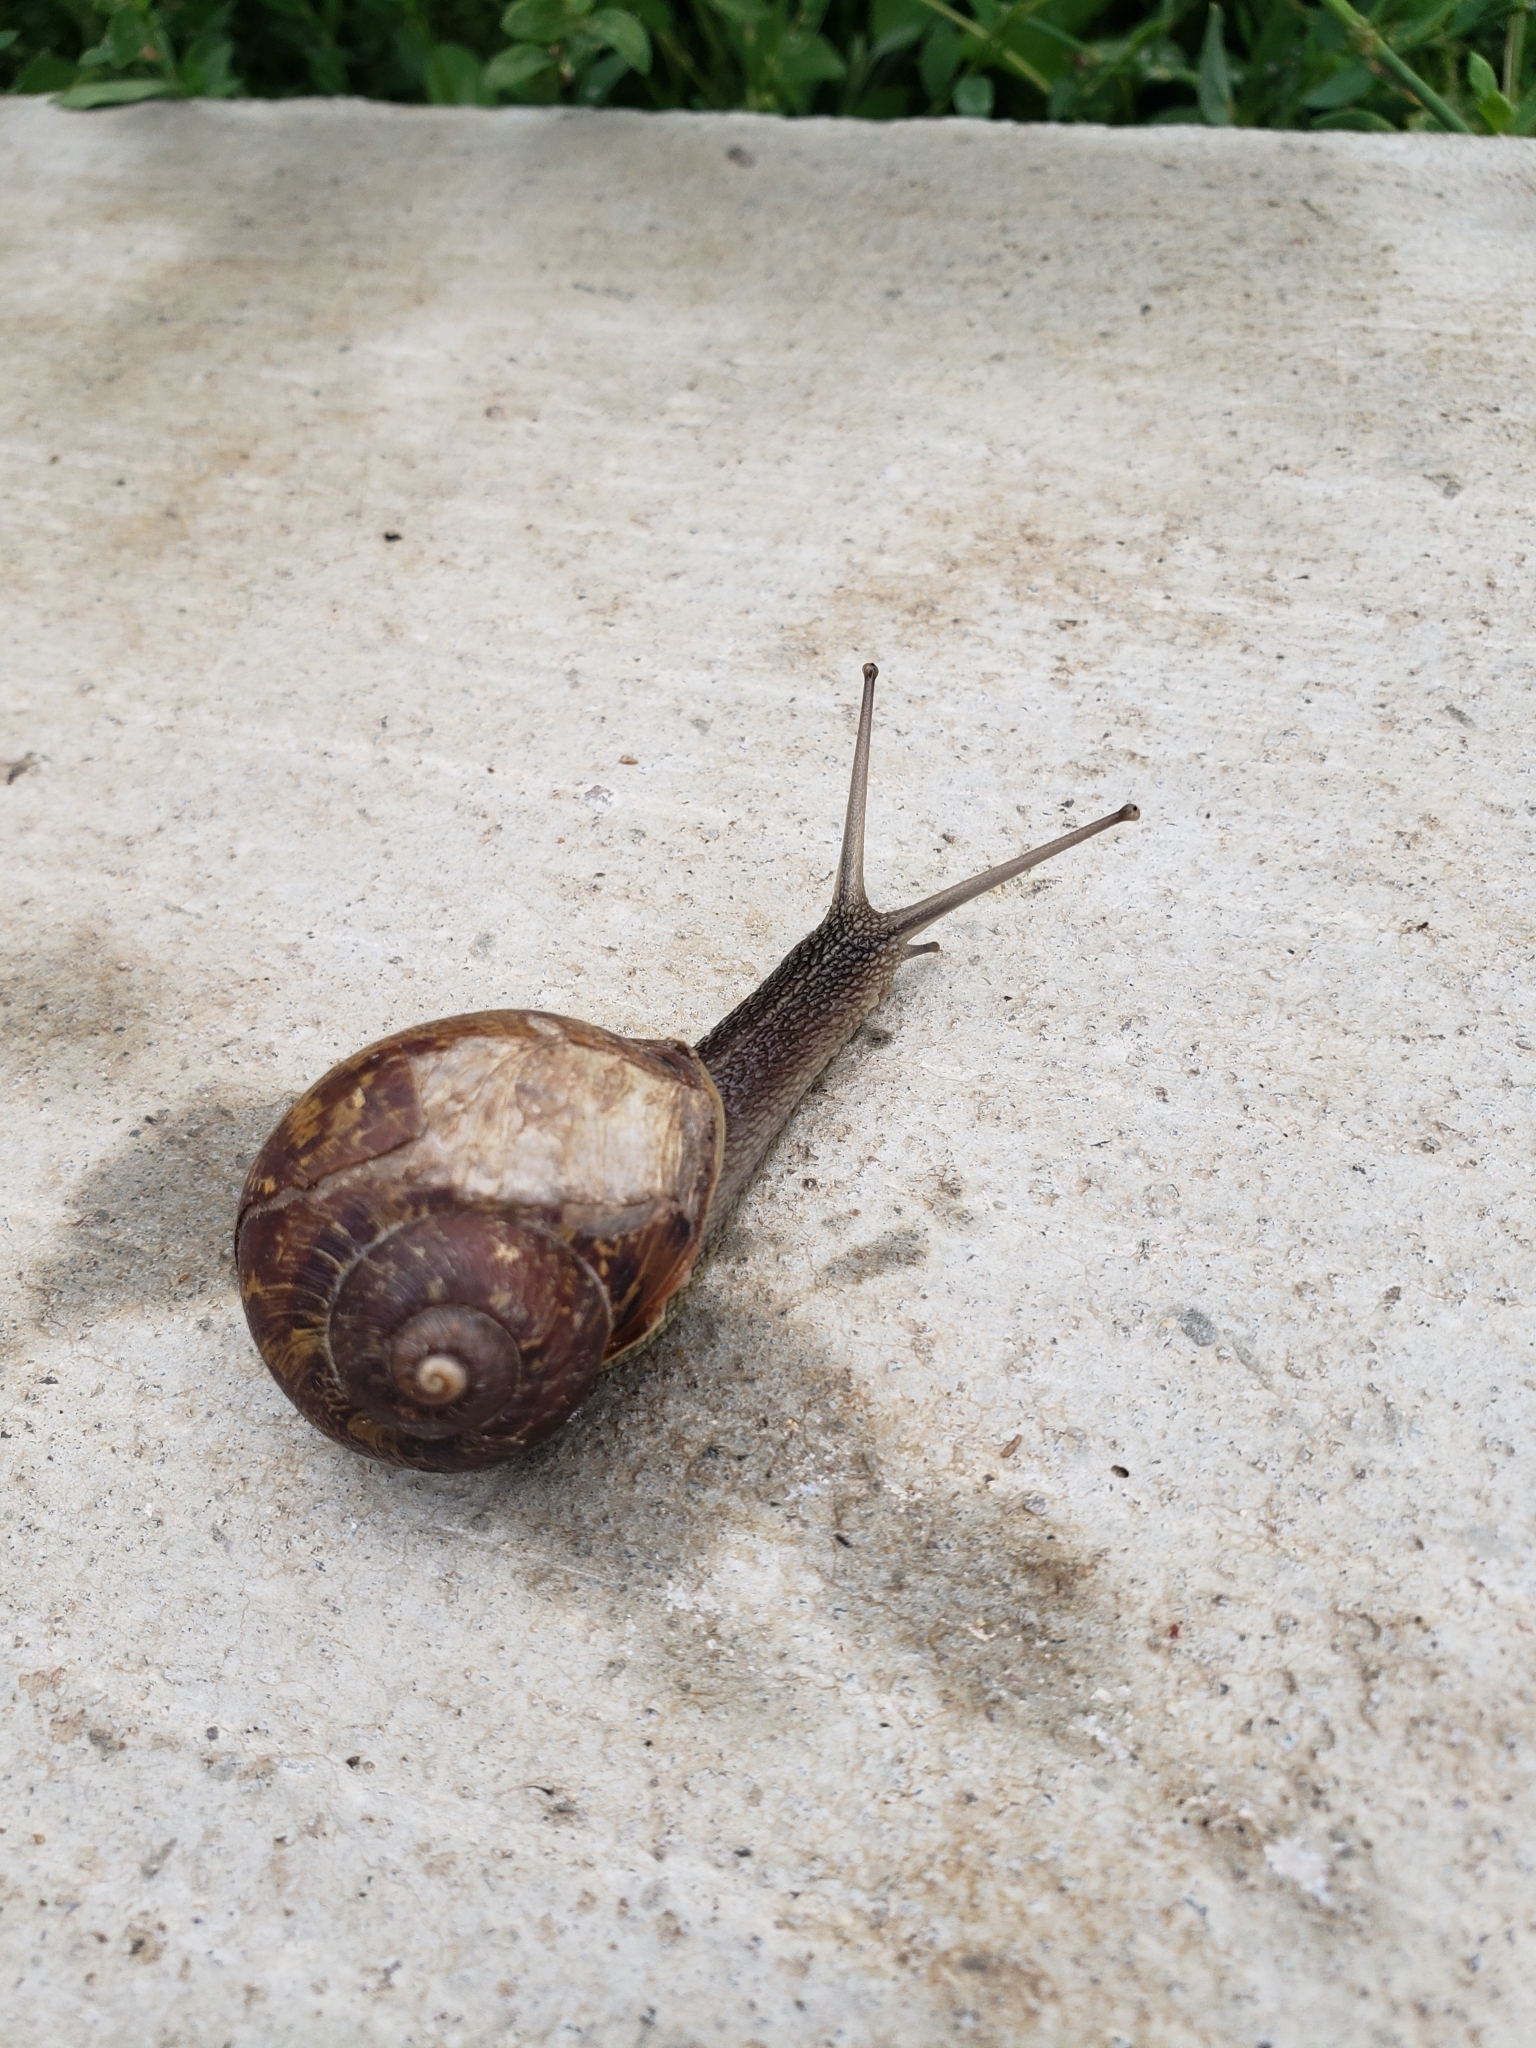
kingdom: Animalia
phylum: Mollusca
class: Gastropoda
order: Stylommatophora
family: Helicidae
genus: Cornu
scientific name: Cornu aspersum
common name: Brown garden snail
